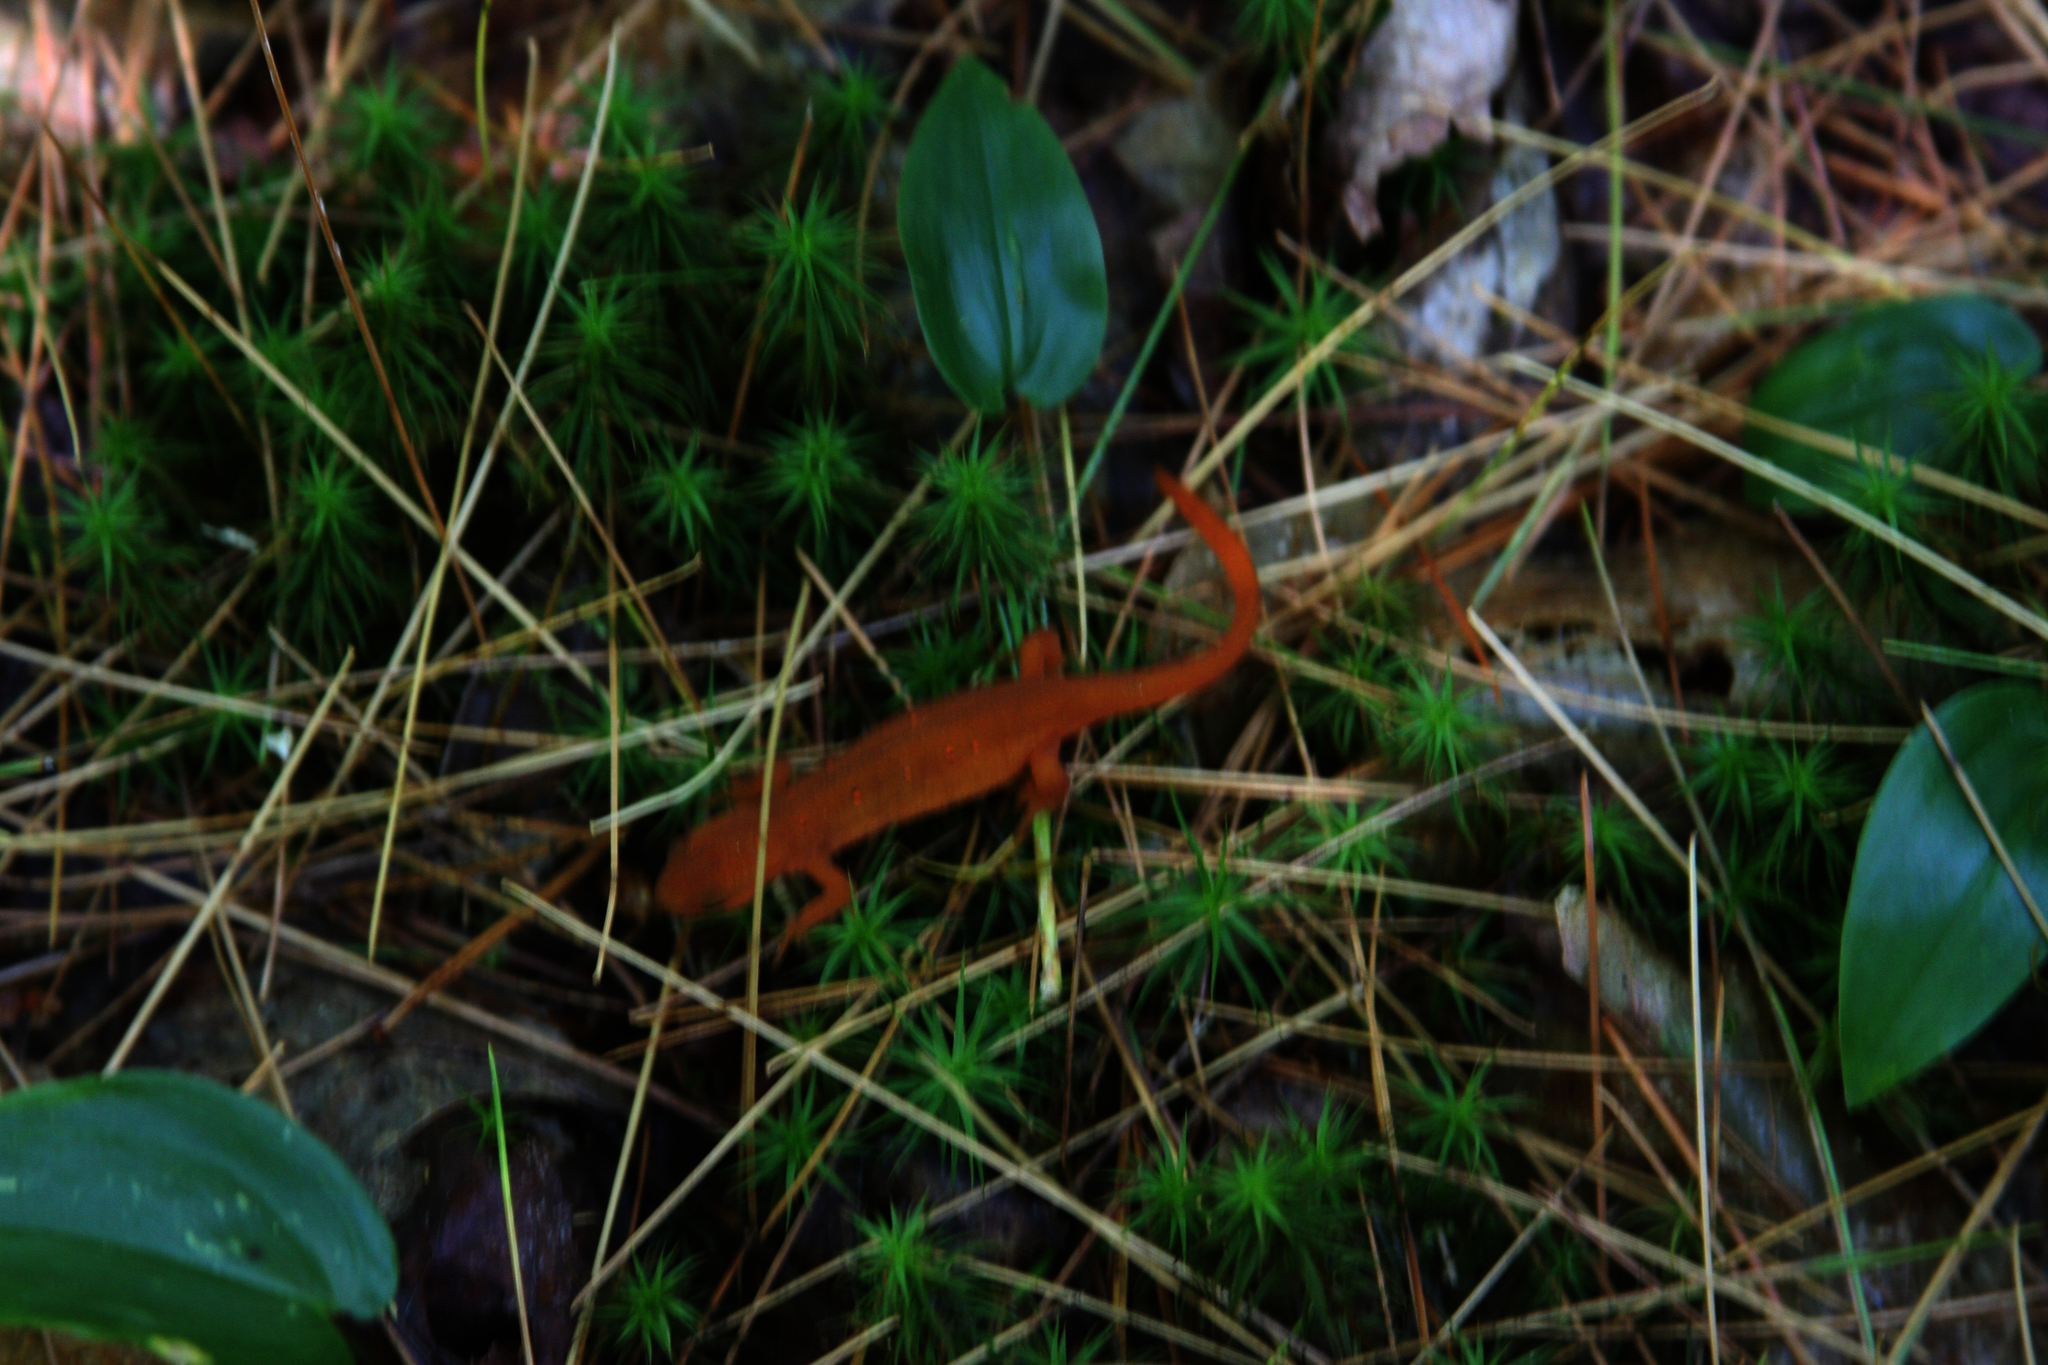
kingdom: Animalia
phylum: Chordata
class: Amphibia
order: Caudata
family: Salamandridae
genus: Notophthalmus
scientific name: Notophthalmus viridescens
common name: Eastern newt
